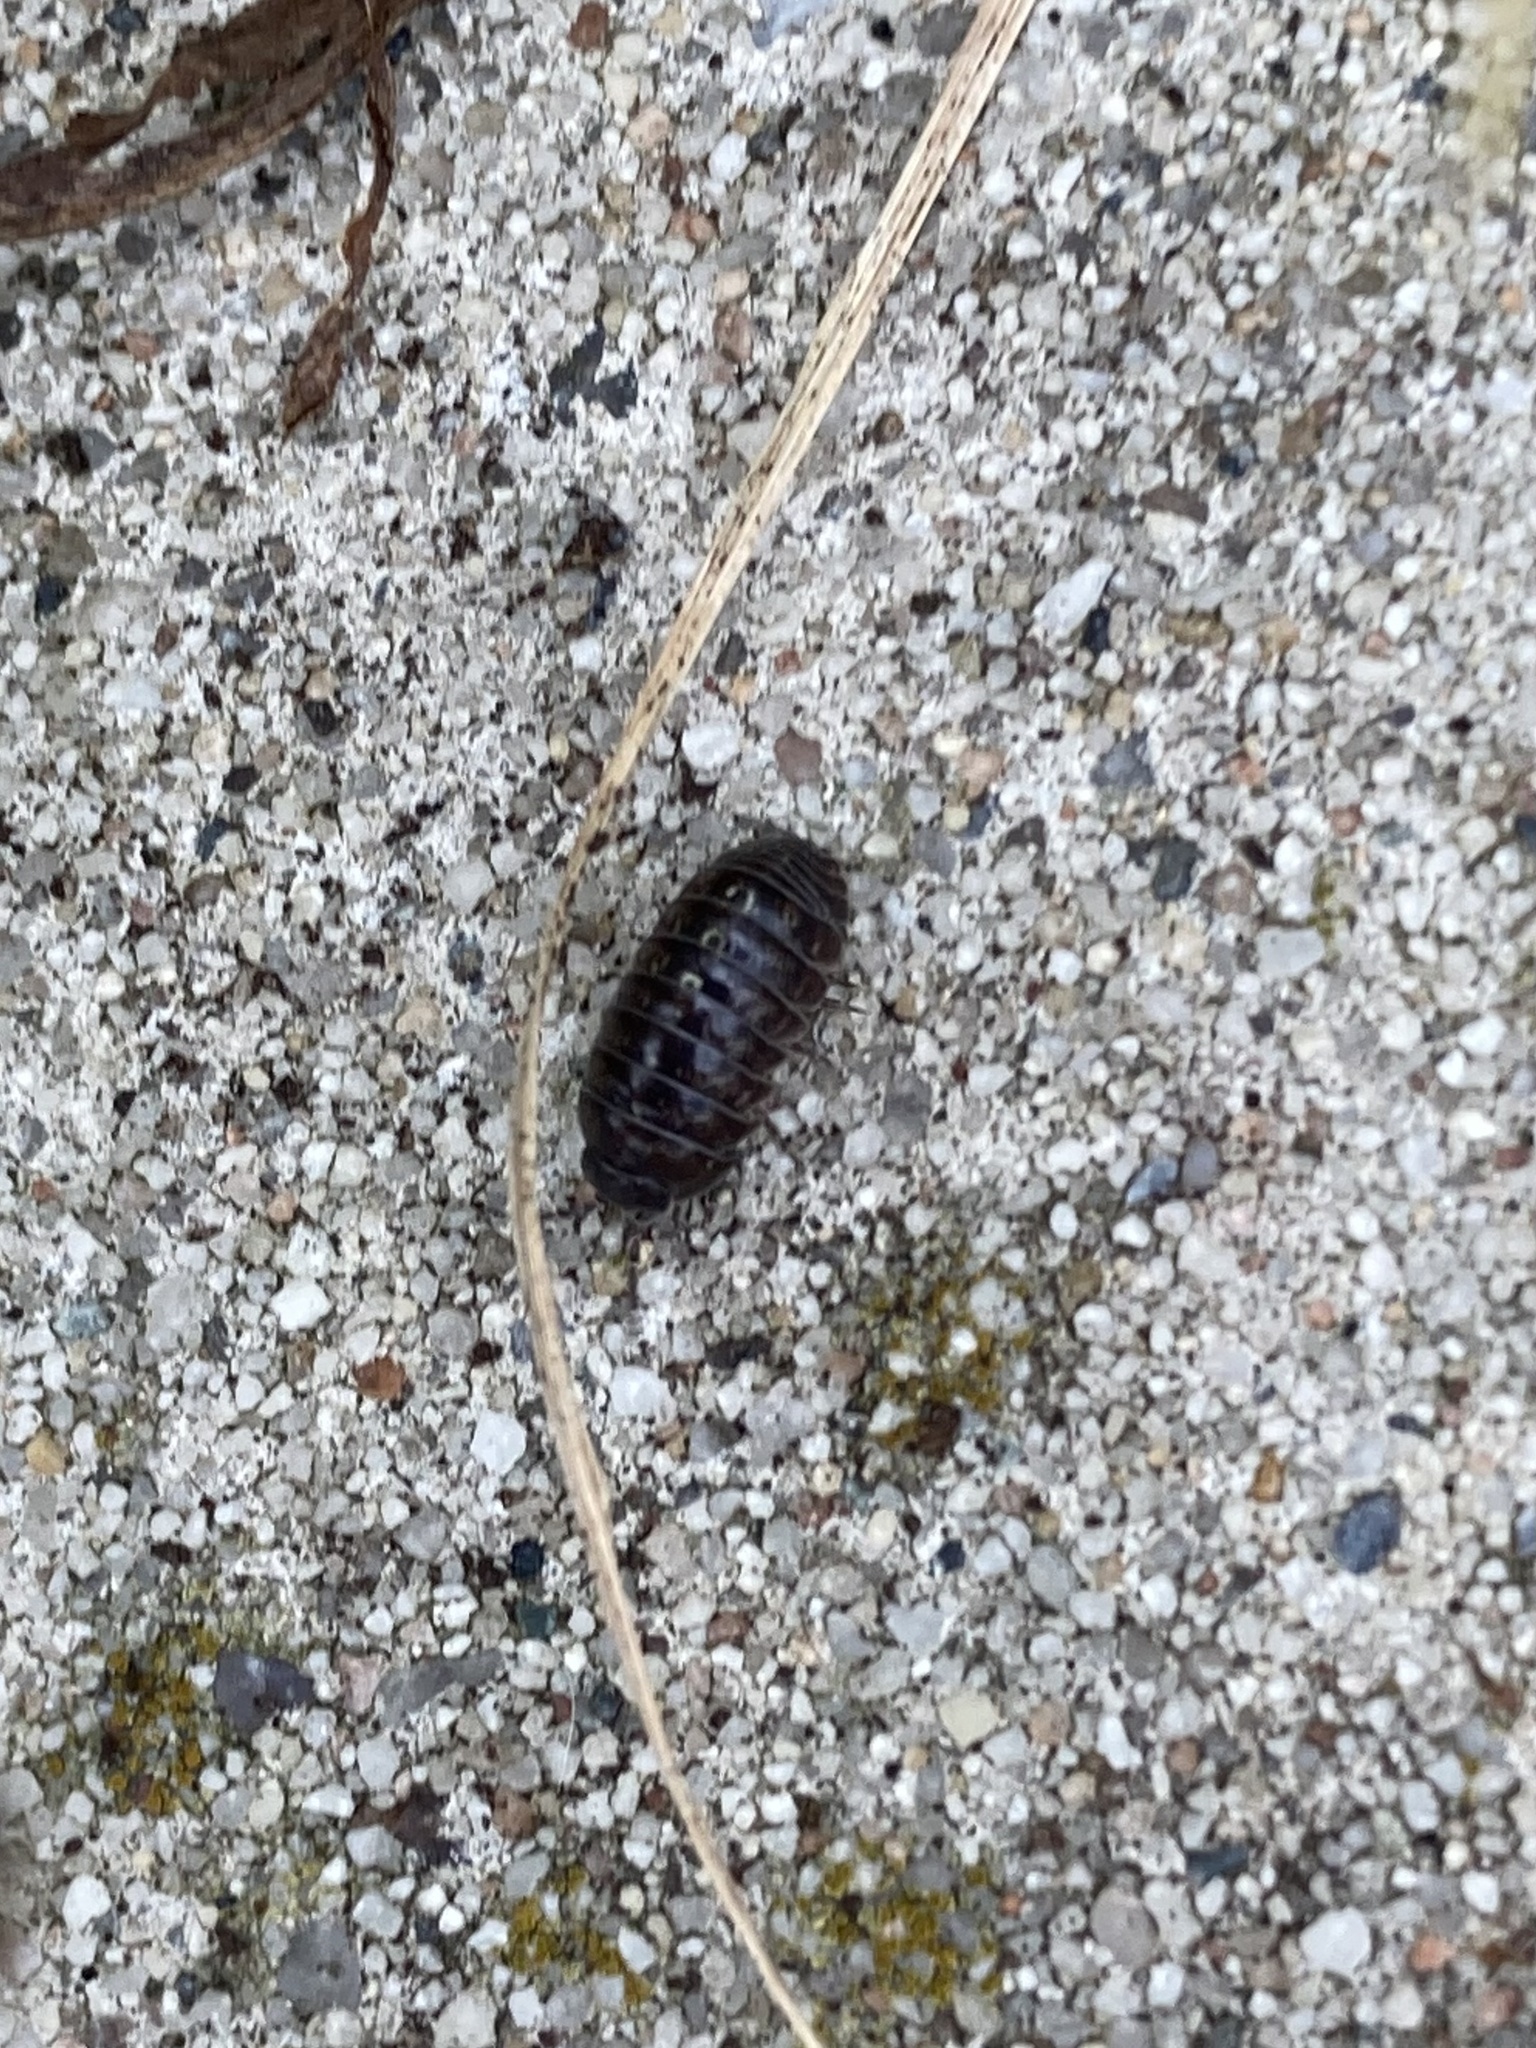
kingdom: Animalia
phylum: Arthropoda
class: Malacostraca
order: Isopoda
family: Armadillidiidae
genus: Armadillidium
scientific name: Armadillidium vulgare
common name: Common pill woodlouse
